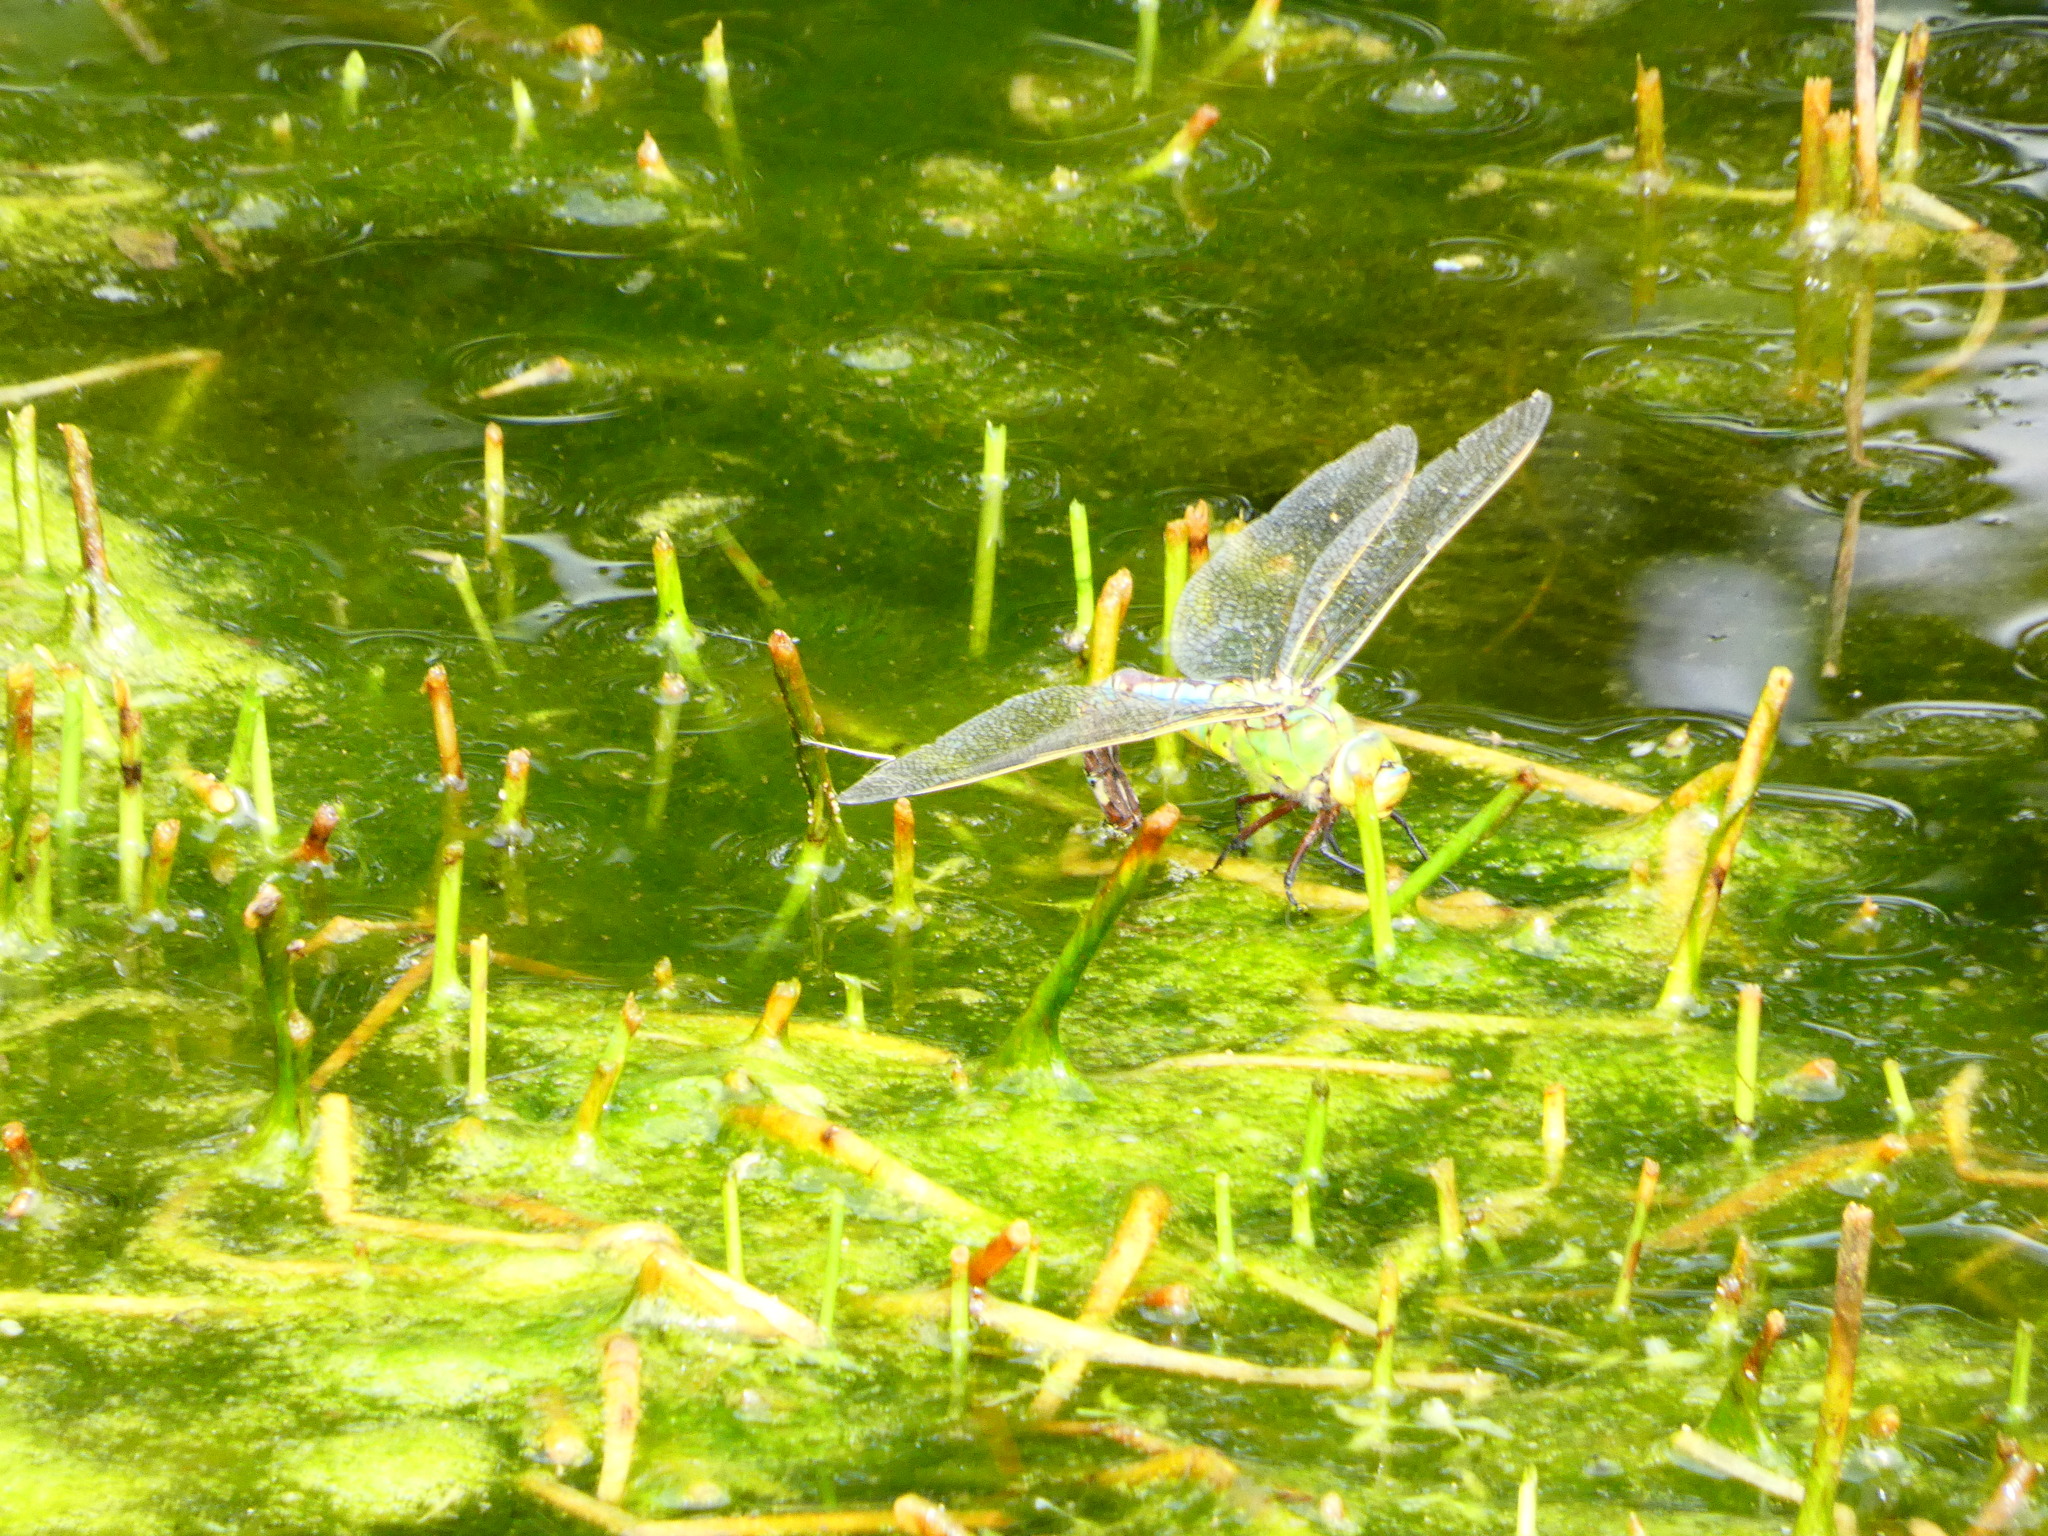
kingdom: Animalia
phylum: Arthropoda
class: Insecta
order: Odonata
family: Aeshnidae
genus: Anax
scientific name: Anax imperator
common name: Emperor dragonfly
